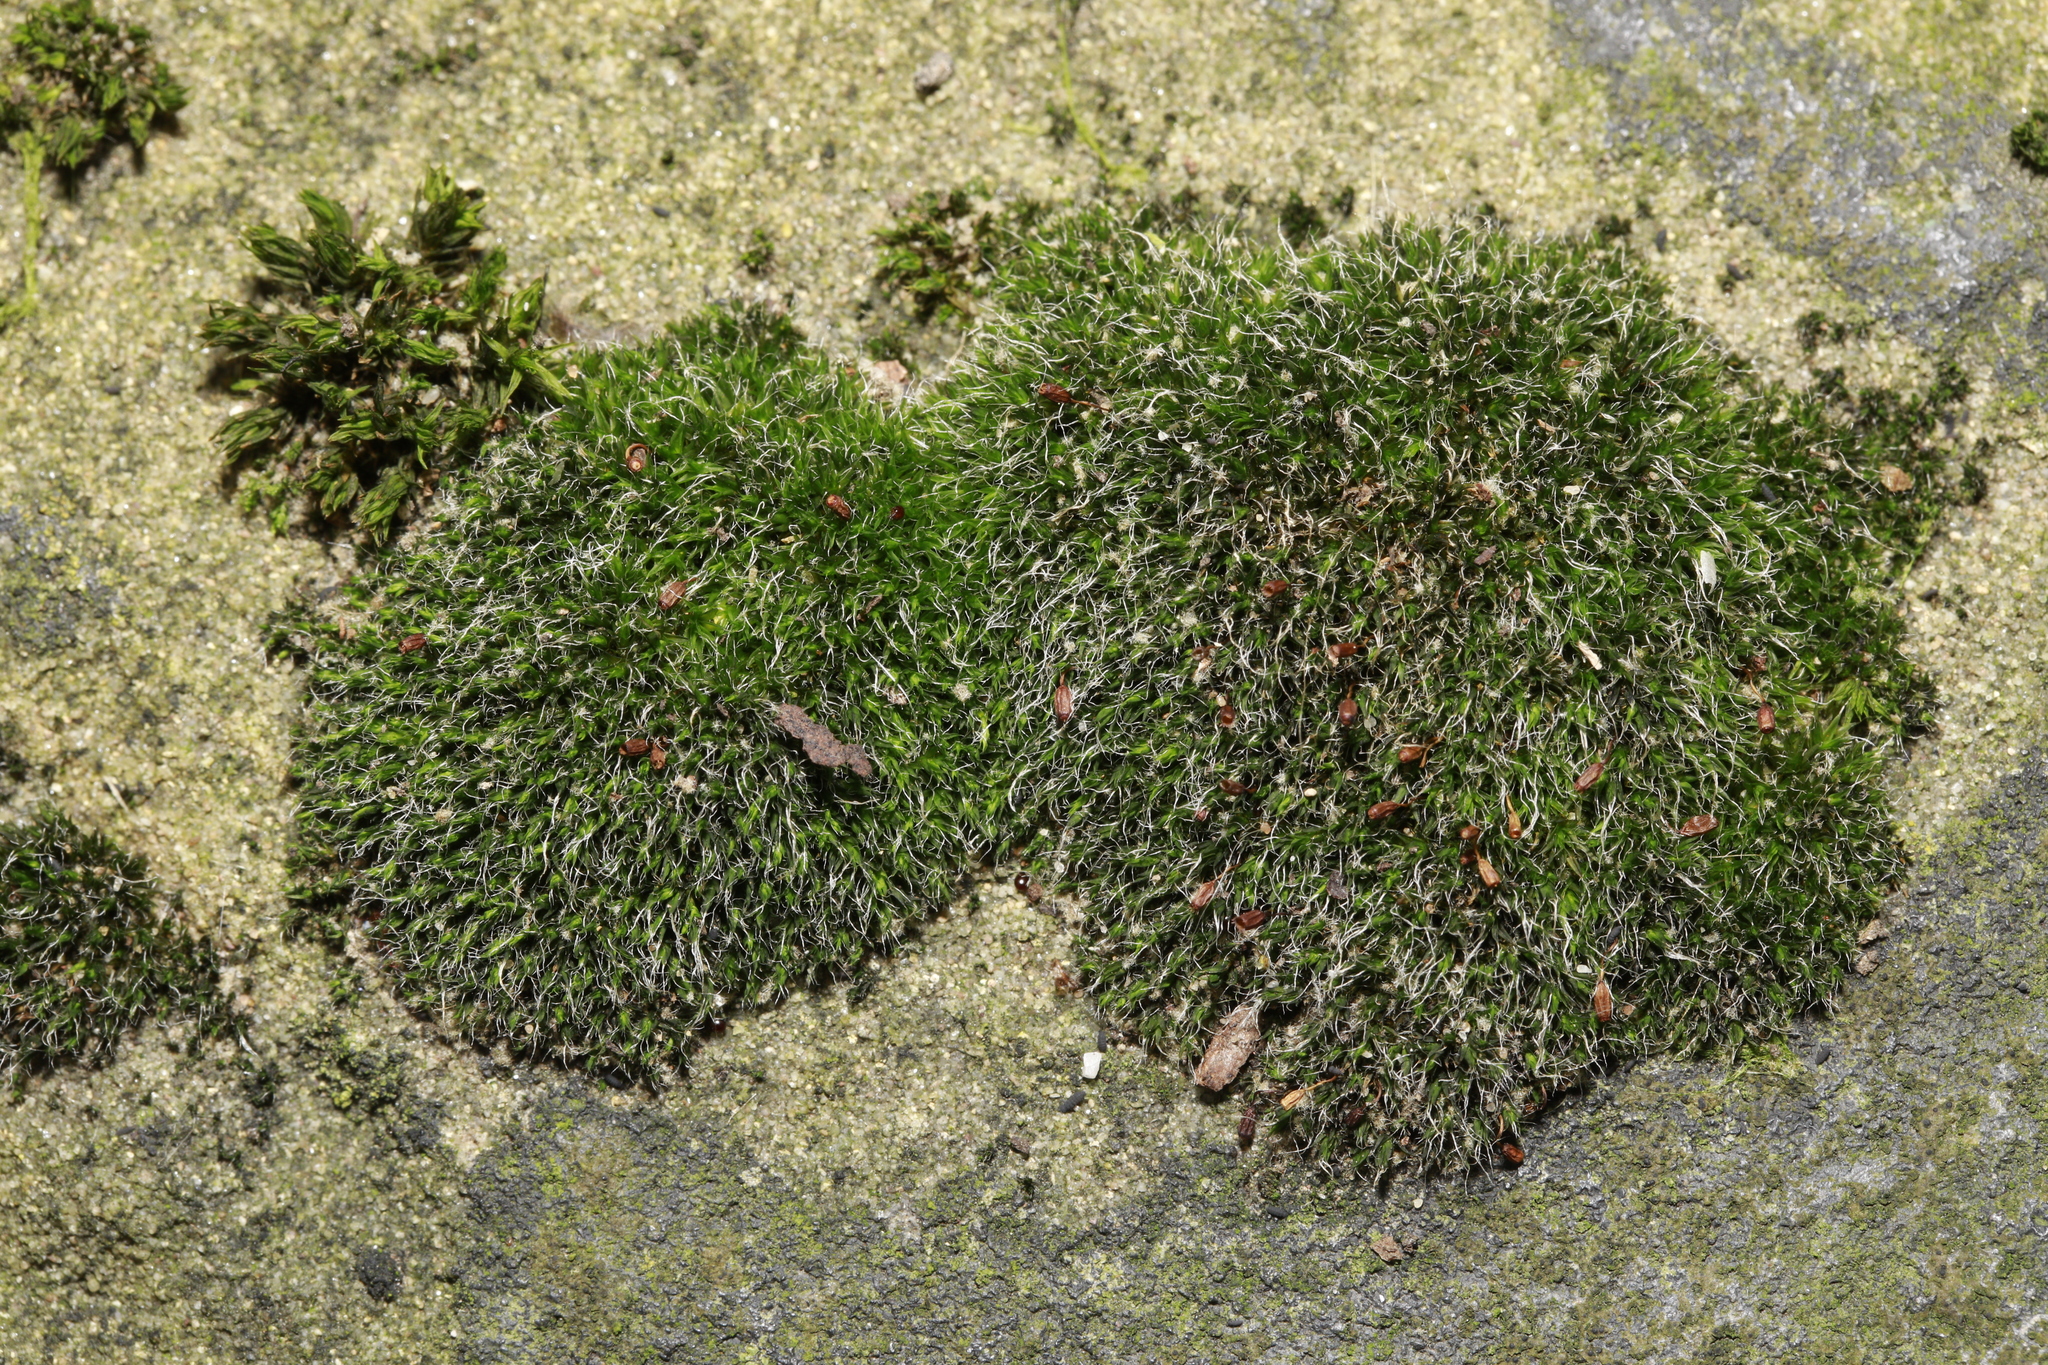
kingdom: Plantae
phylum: Bryophyta
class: Bryopsida
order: Grimmiales
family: Grimmiaceae
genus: Grimmia
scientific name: Grimmia pulvinata
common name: Grey-cushioned grimmia
